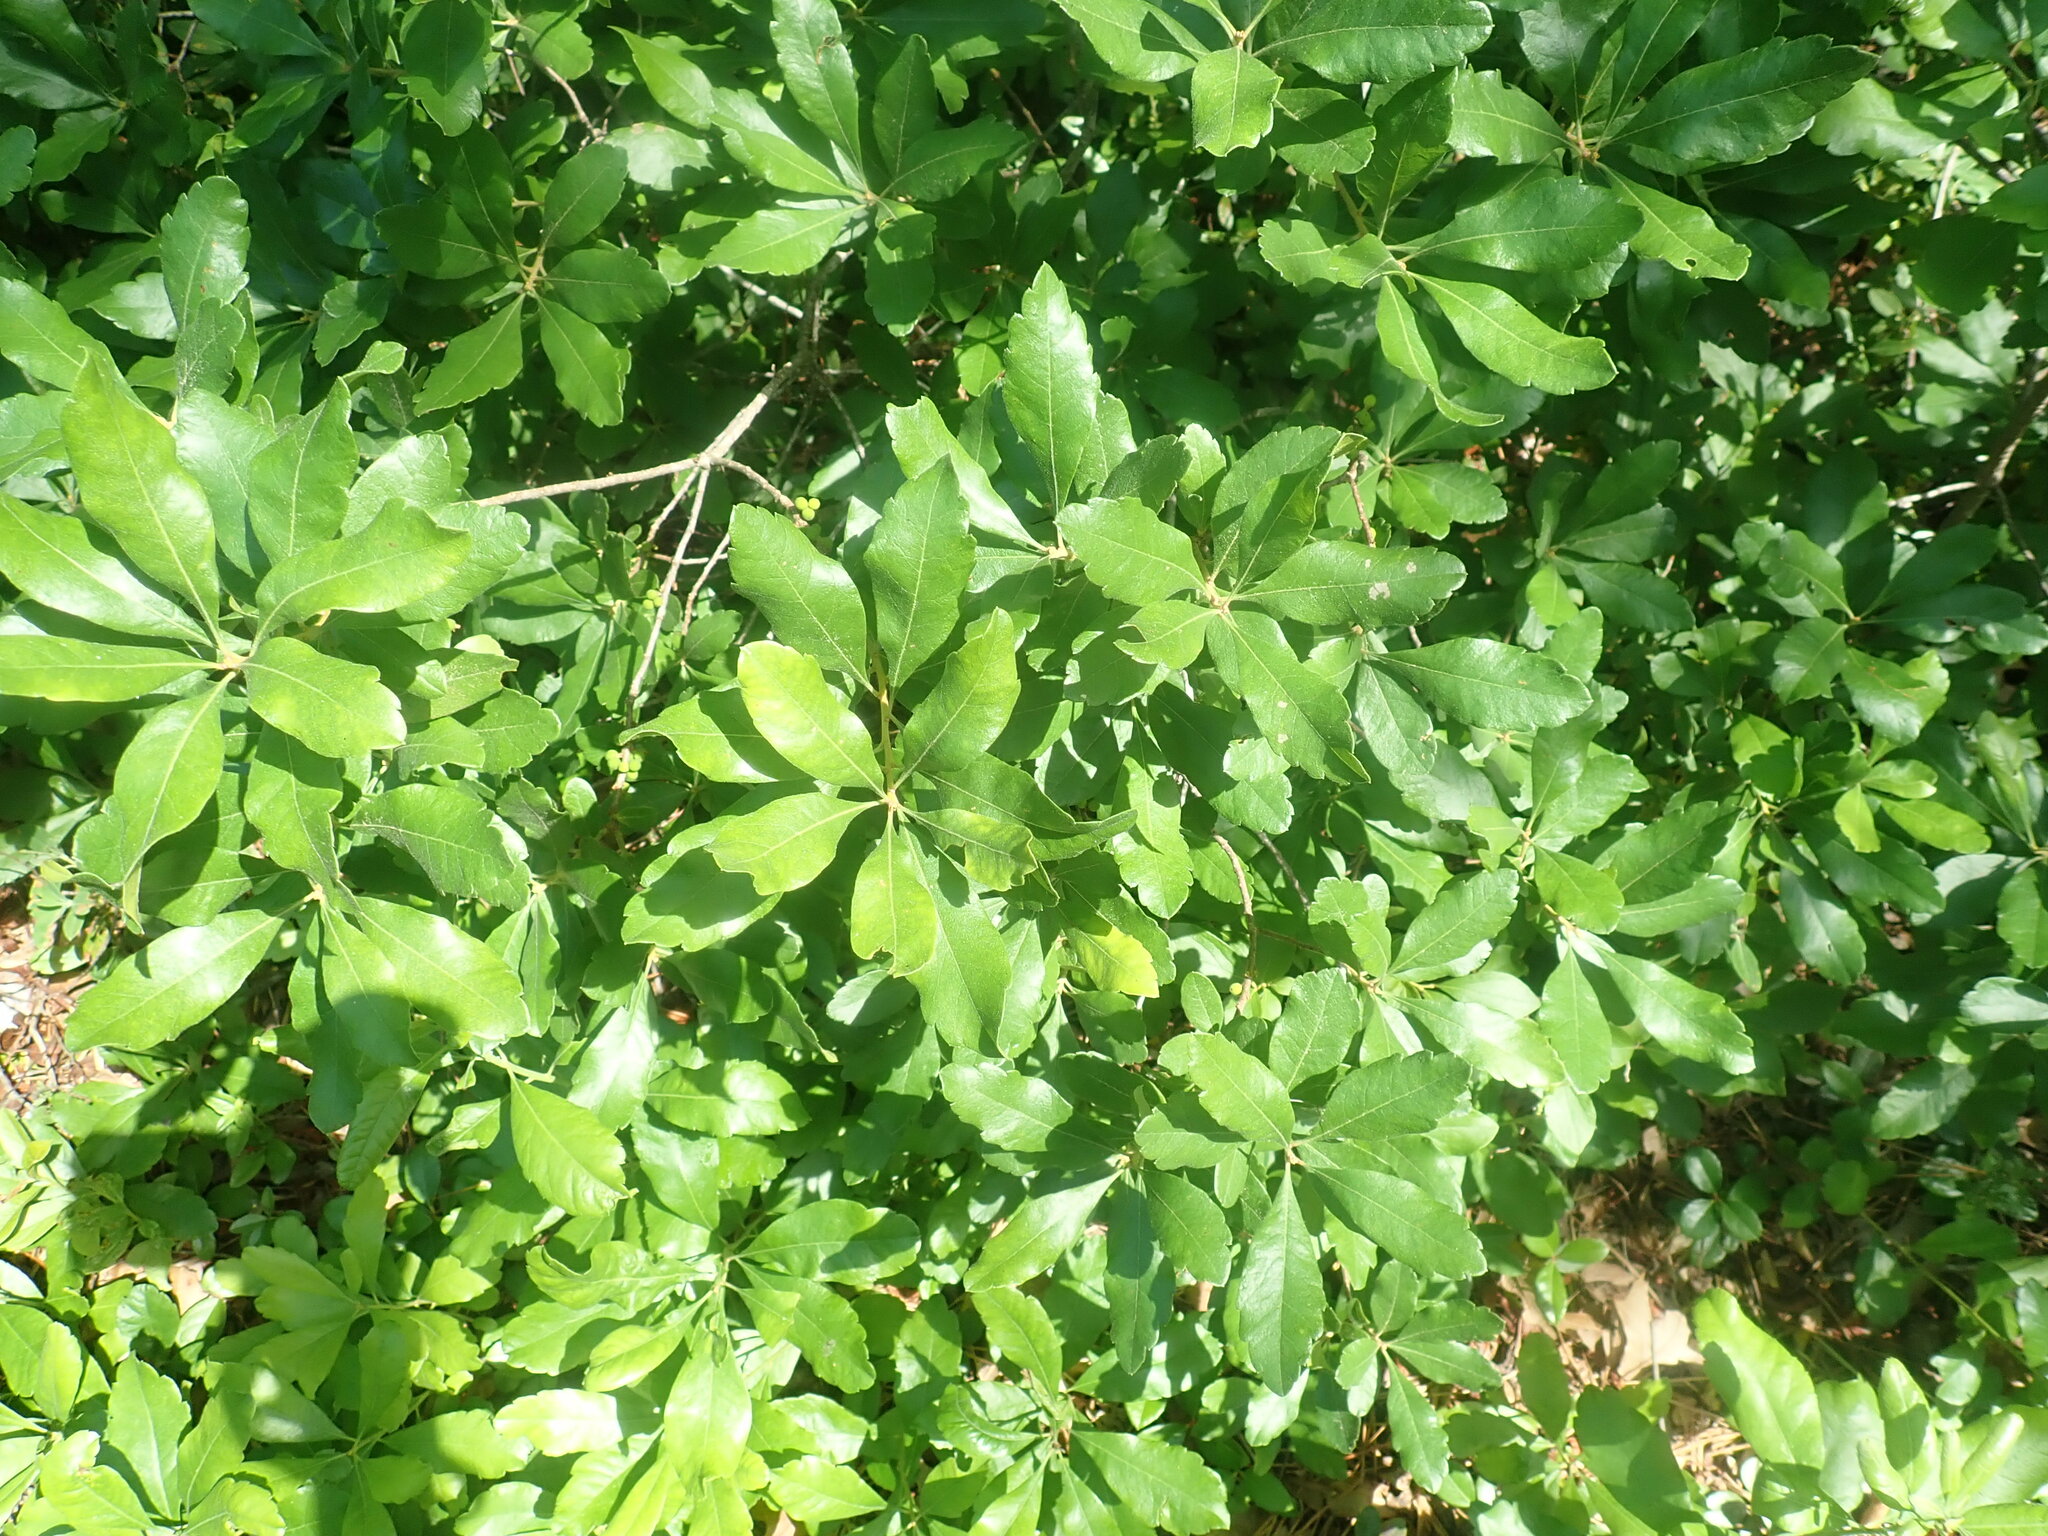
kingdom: Plantae
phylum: Tracheophyta
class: Magnoliopsida
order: Fagales
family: Myricaceae
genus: Morella
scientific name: Morella pensylvanica
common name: Northern bayberry
